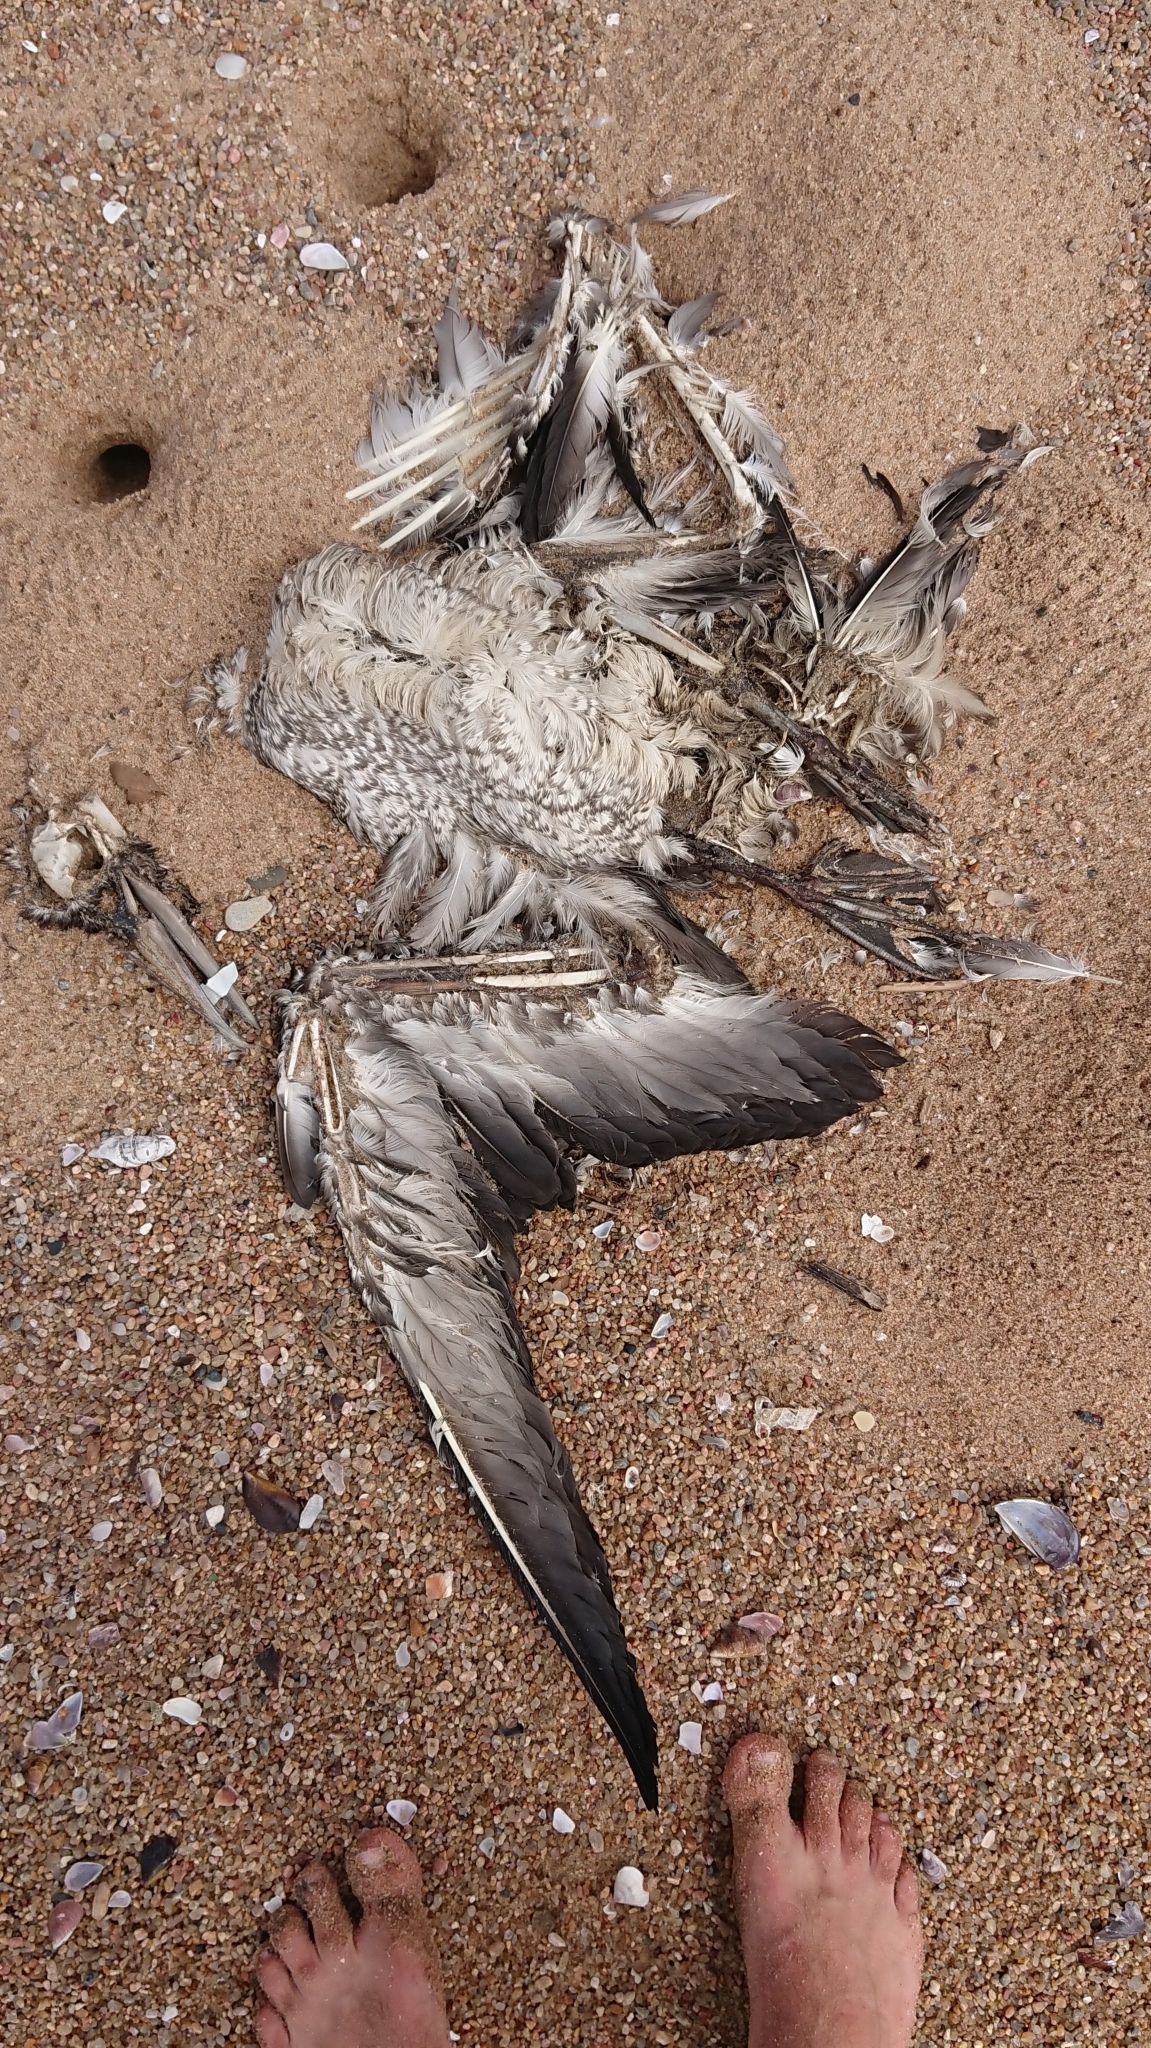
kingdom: Animalia
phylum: Chordata
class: Aves
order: Suliformes
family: Sulidae
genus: Morus
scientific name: Morus capensis
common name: Cape gannet
